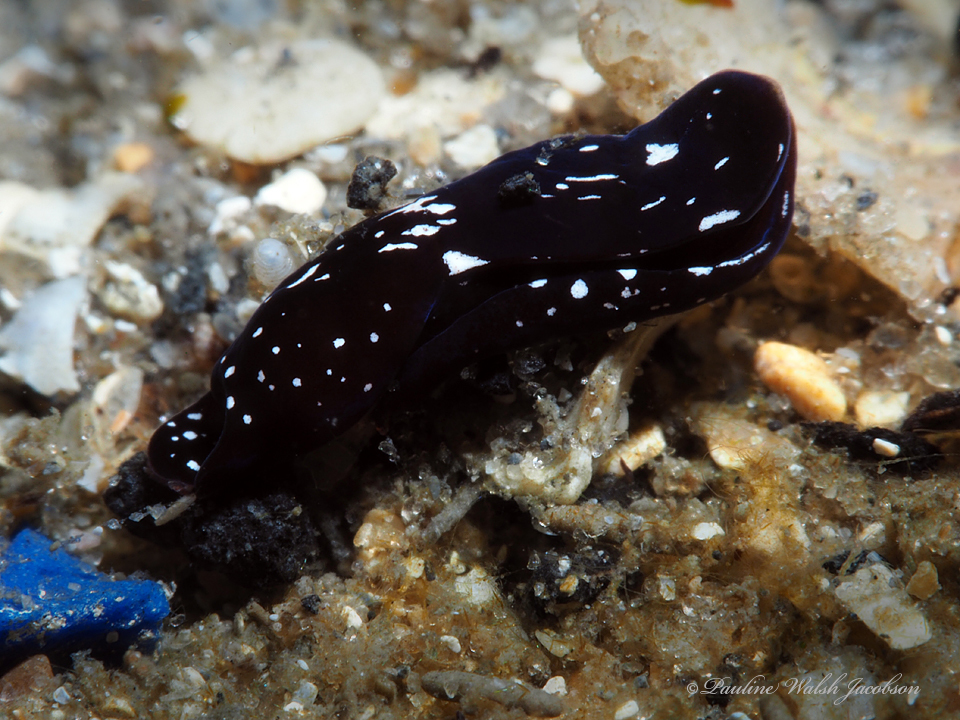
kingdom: Animalia
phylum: Mollusca
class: Gastropoda
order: Cephalaspidea
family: Aglajidae
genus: Nakamigawaia
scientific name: Nakamigawaia felis
